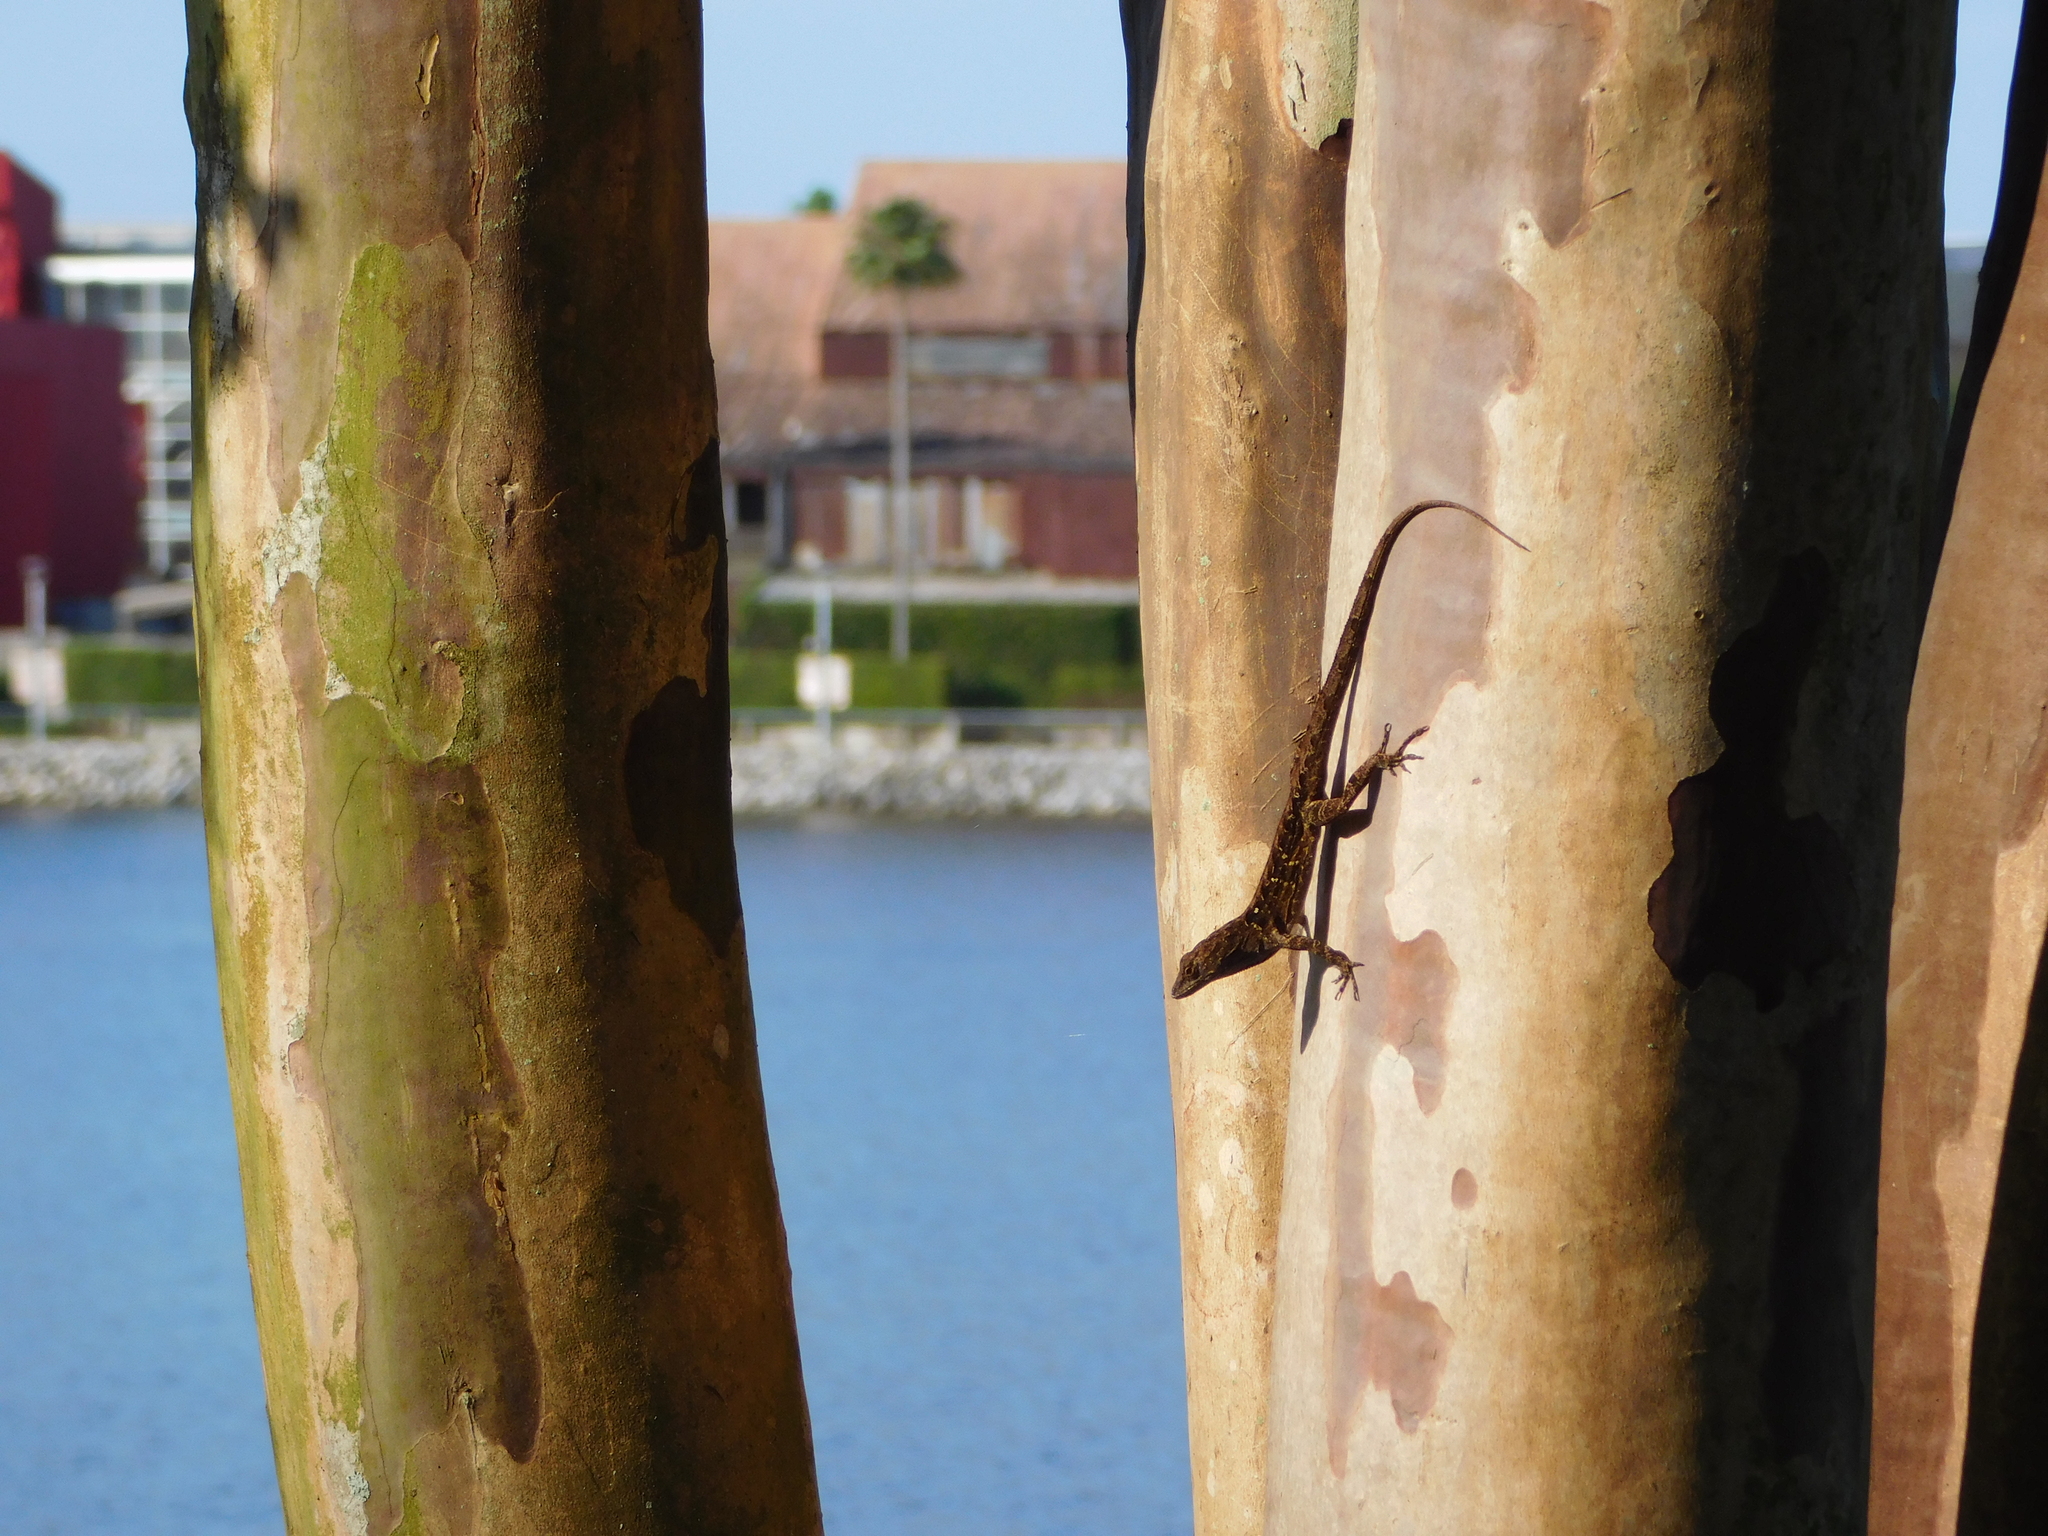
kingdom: Animalia
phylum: Chordata
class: Squamata
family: Dactyloidae
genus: Anolis
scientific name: Anolis sagrei
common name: Brown anole
